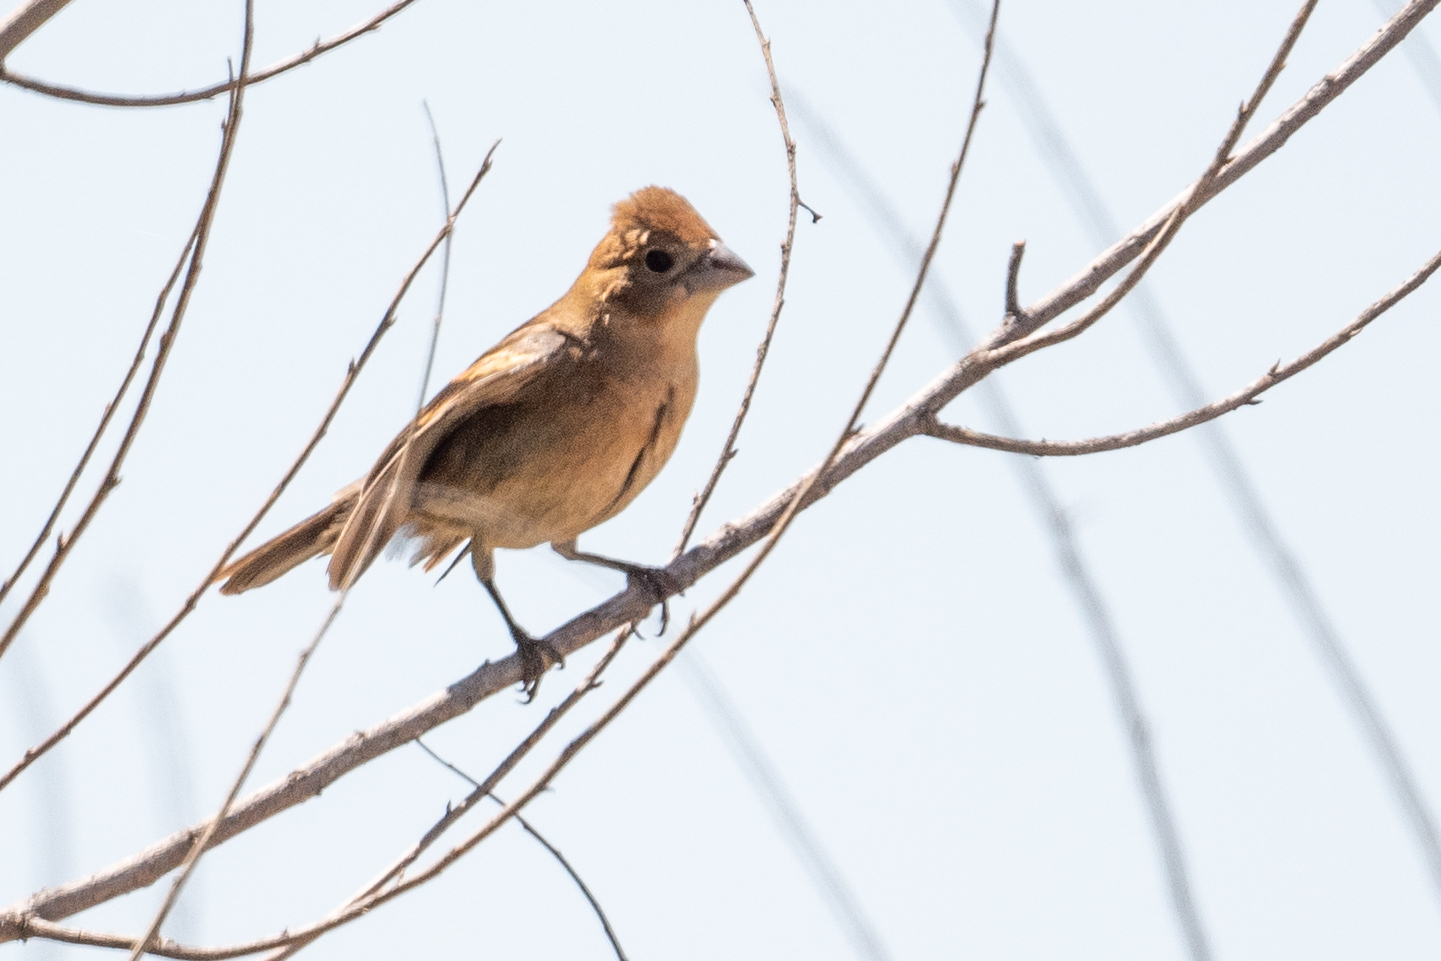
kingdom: Animalia
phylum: Chordata
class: Aves
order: Passeriformes
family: Cardinalidae
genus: Passerina
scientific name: Passerina caerulea
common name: Blue grosbeak
